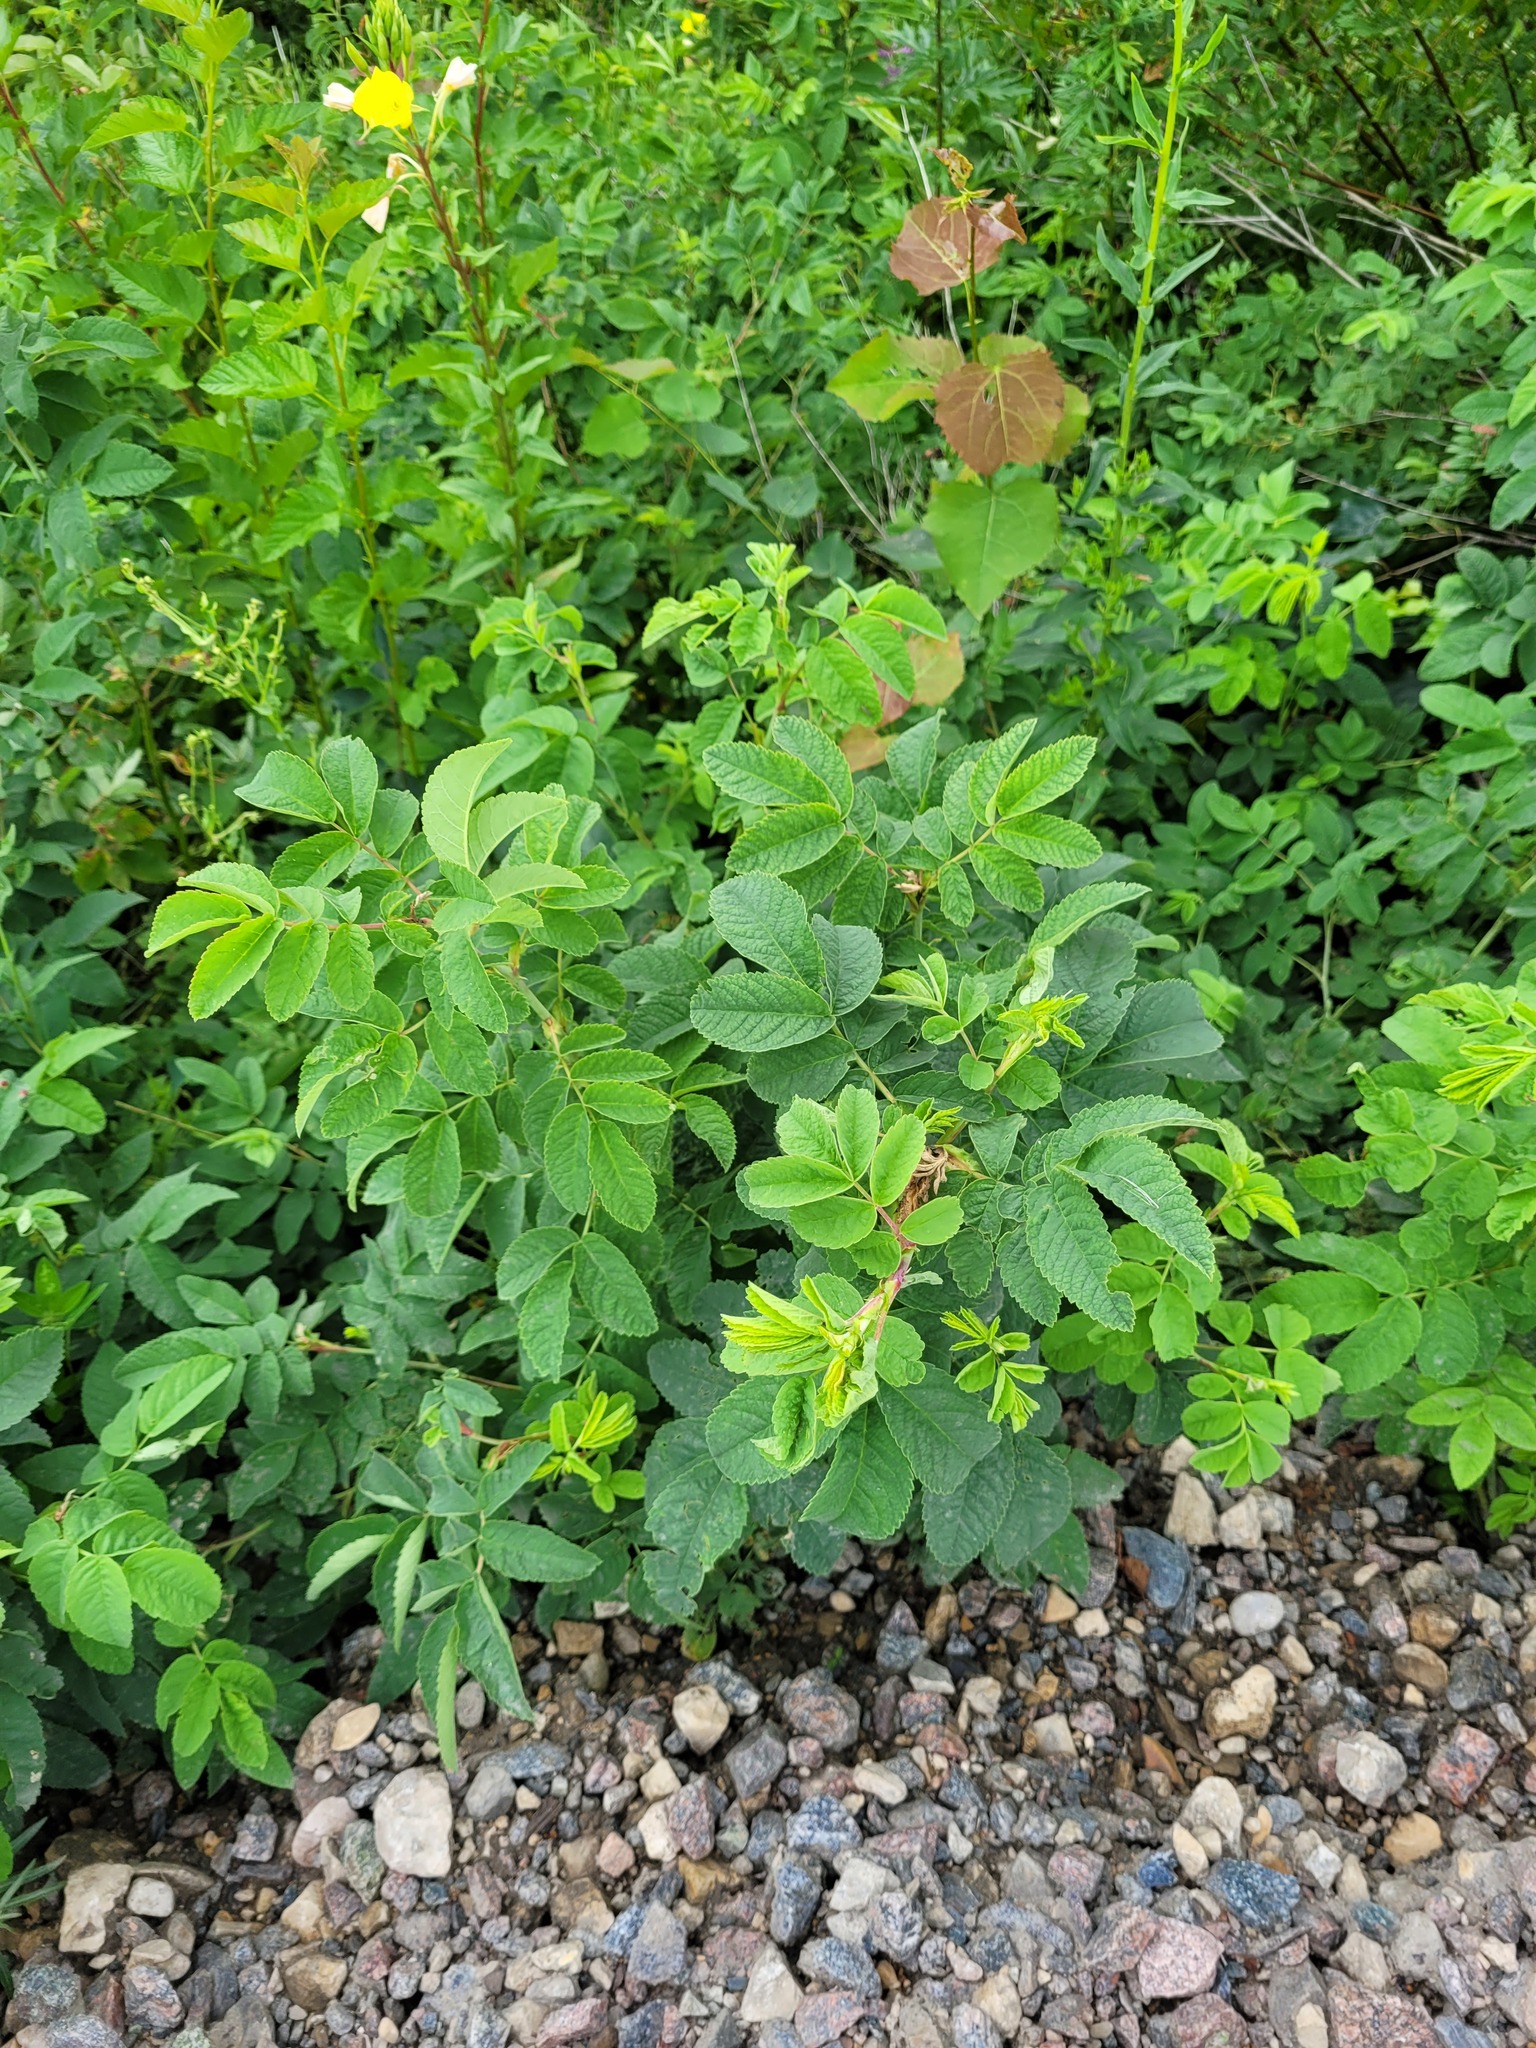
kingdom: Plantae
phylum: Tracheophyta
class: Magnoliopsida
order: Rosales
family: Rosaceae
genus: Rosa
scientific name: Rosa majalis
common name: Cinnamon rose
